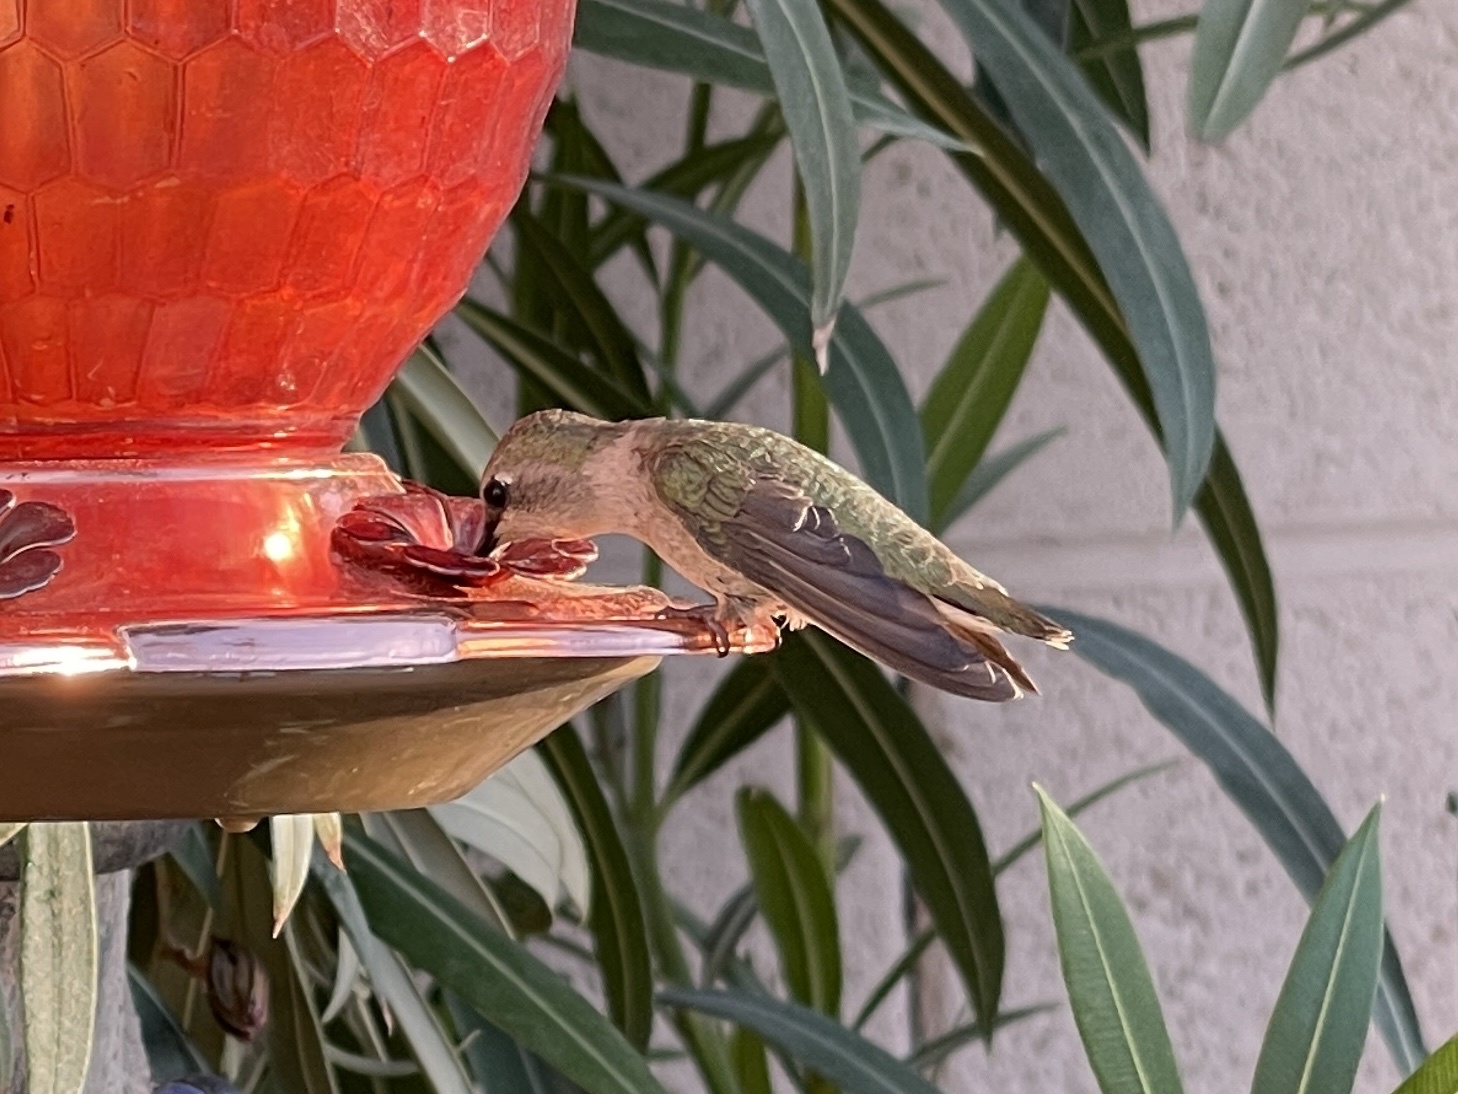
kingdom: Animalia
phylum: Chordata
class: Aves
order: Apodiformes
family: Trochilidae
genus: Calypte
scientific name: Calypte costae
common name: Costa's hummingbird
